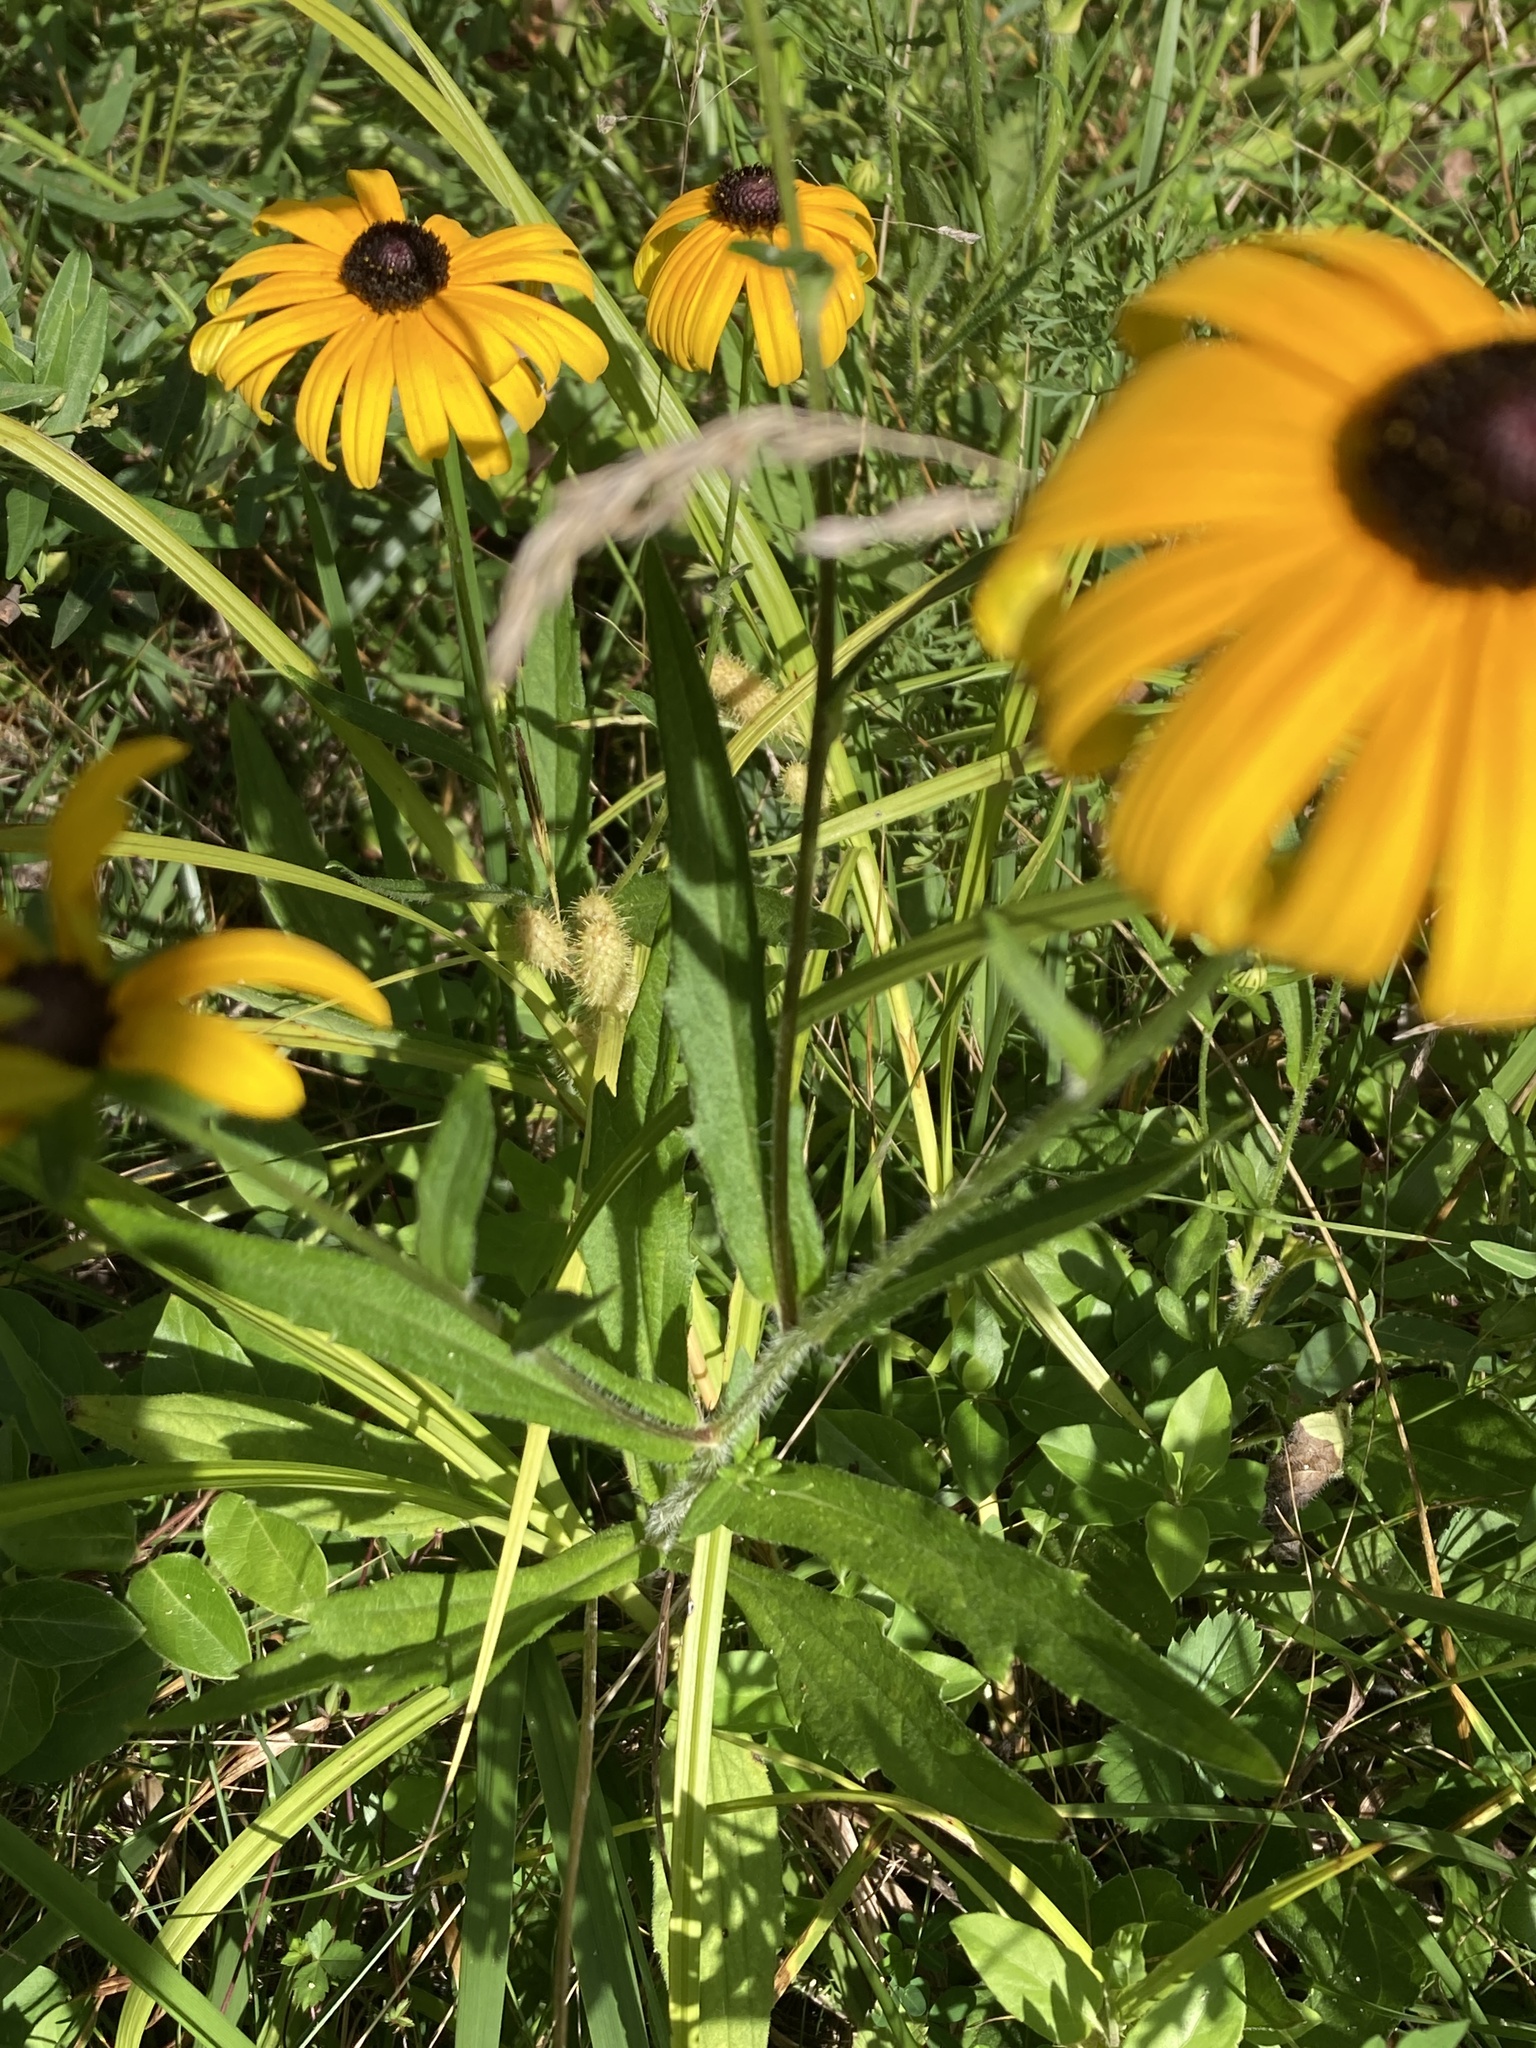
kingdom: Plantae
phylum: Tracheophyta
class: Magnoliopsida
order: Asterales
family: Asteraceae
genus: Rudbeckia
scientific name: Rudbeckia hirta
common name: Black-eyed-susan
